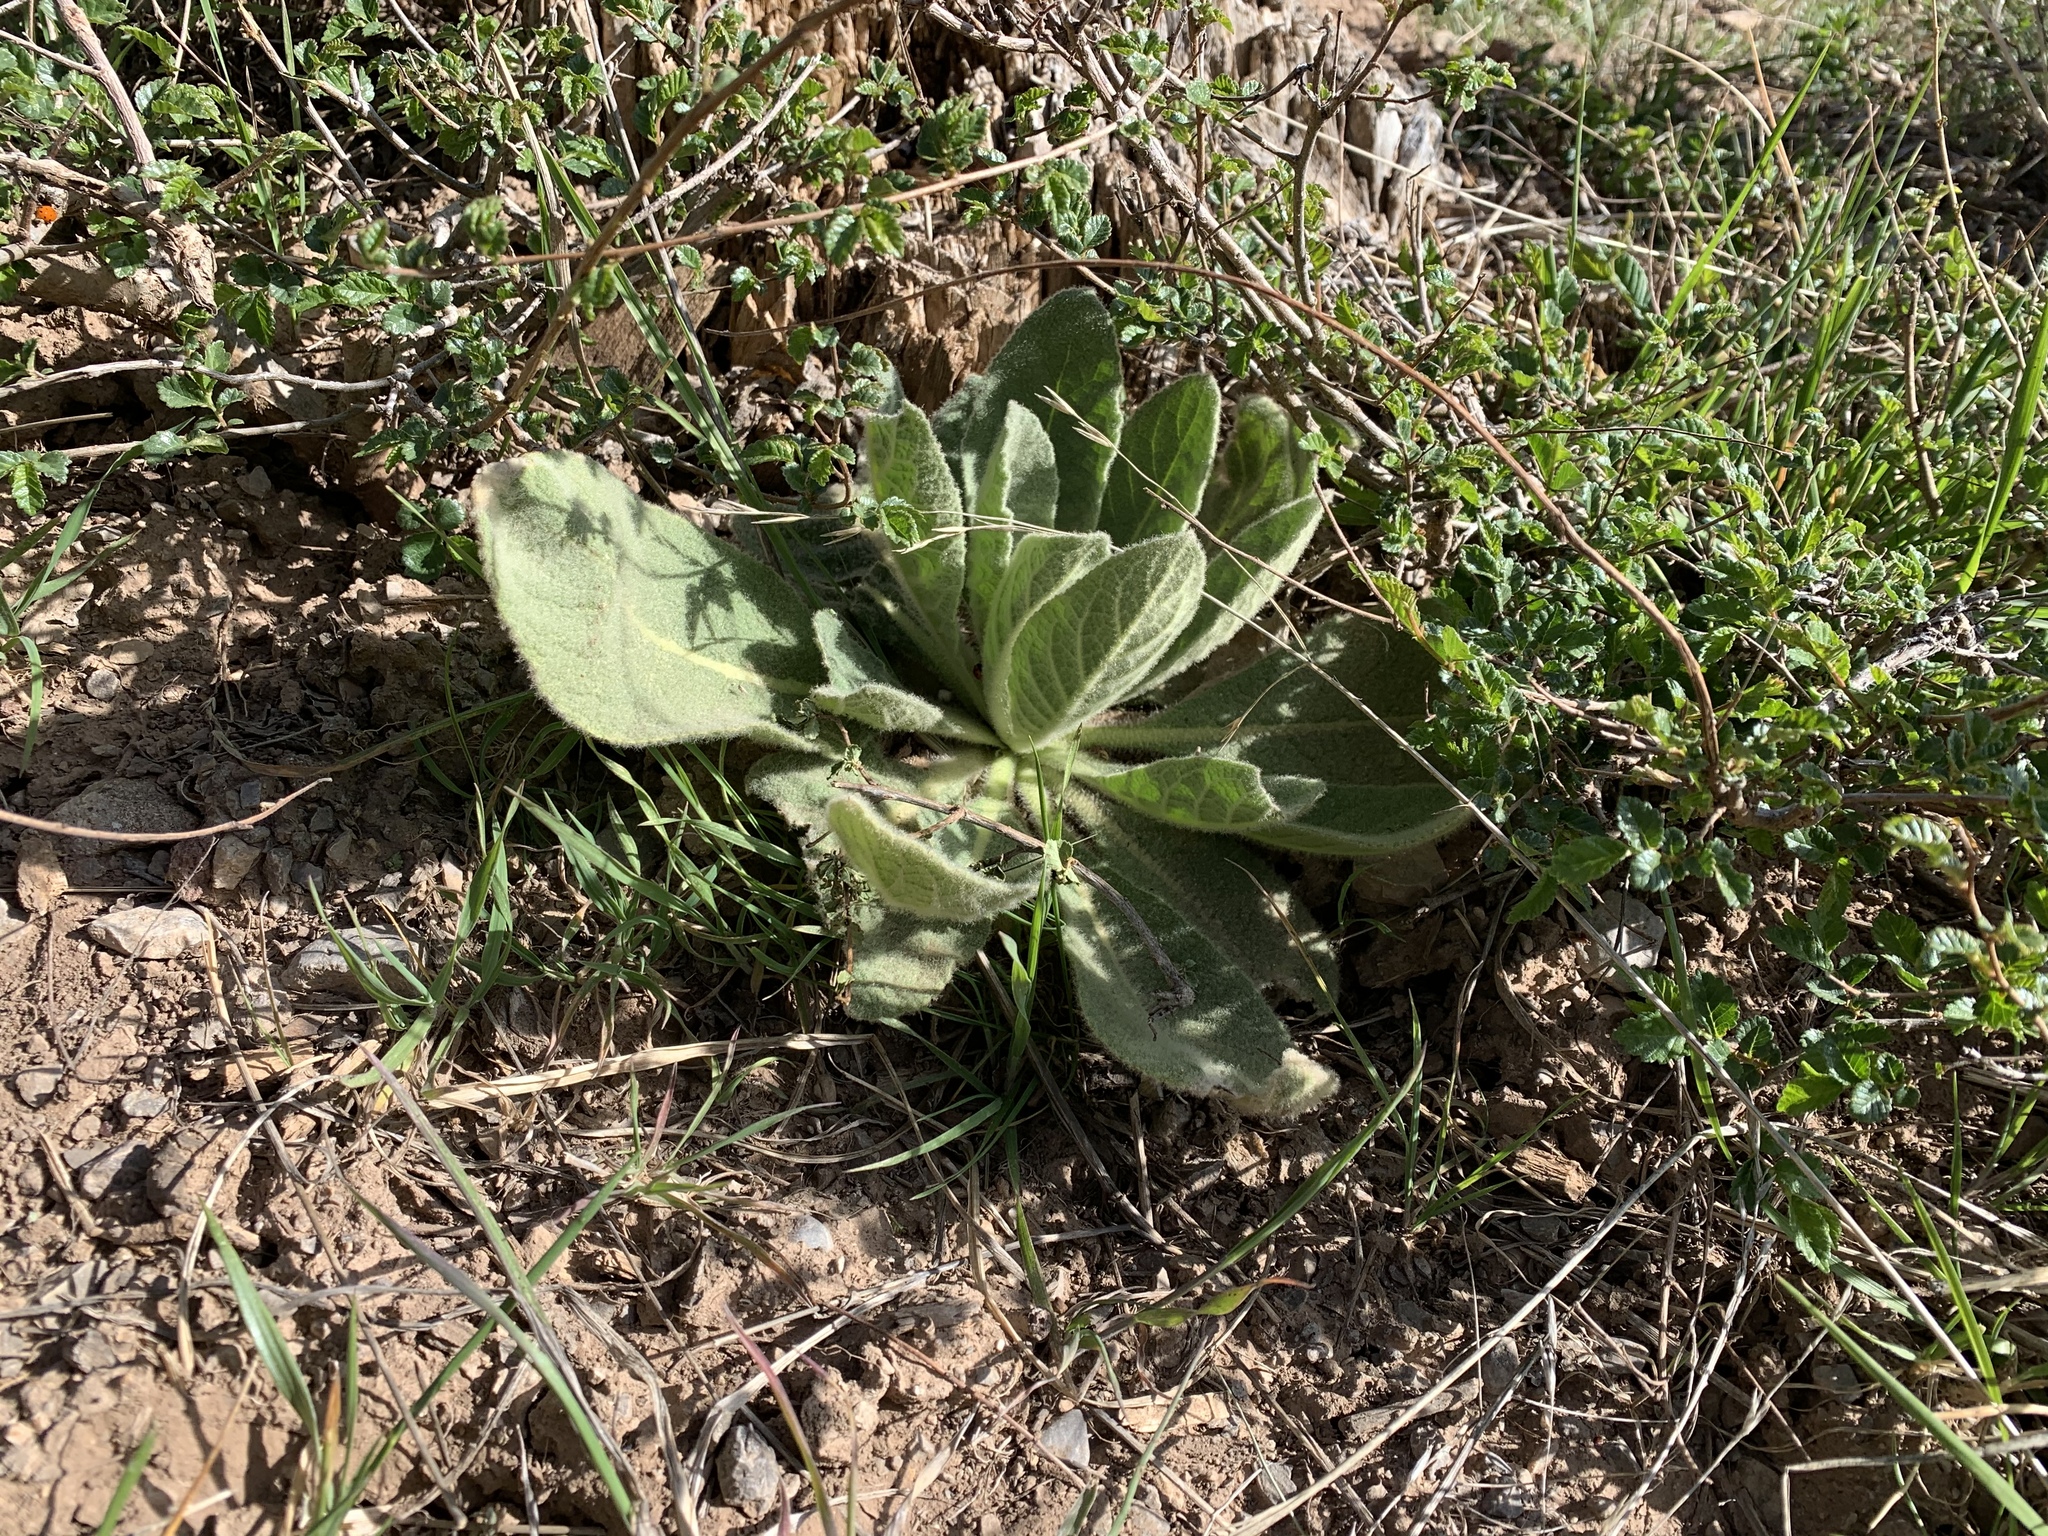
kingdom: Plantae
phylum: Tracheophyta
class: Magnoliopsida
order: Lamiales
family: Scrophulariaceae
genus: Verbascum
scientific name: Verbascum thapsus
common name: Common mullein
